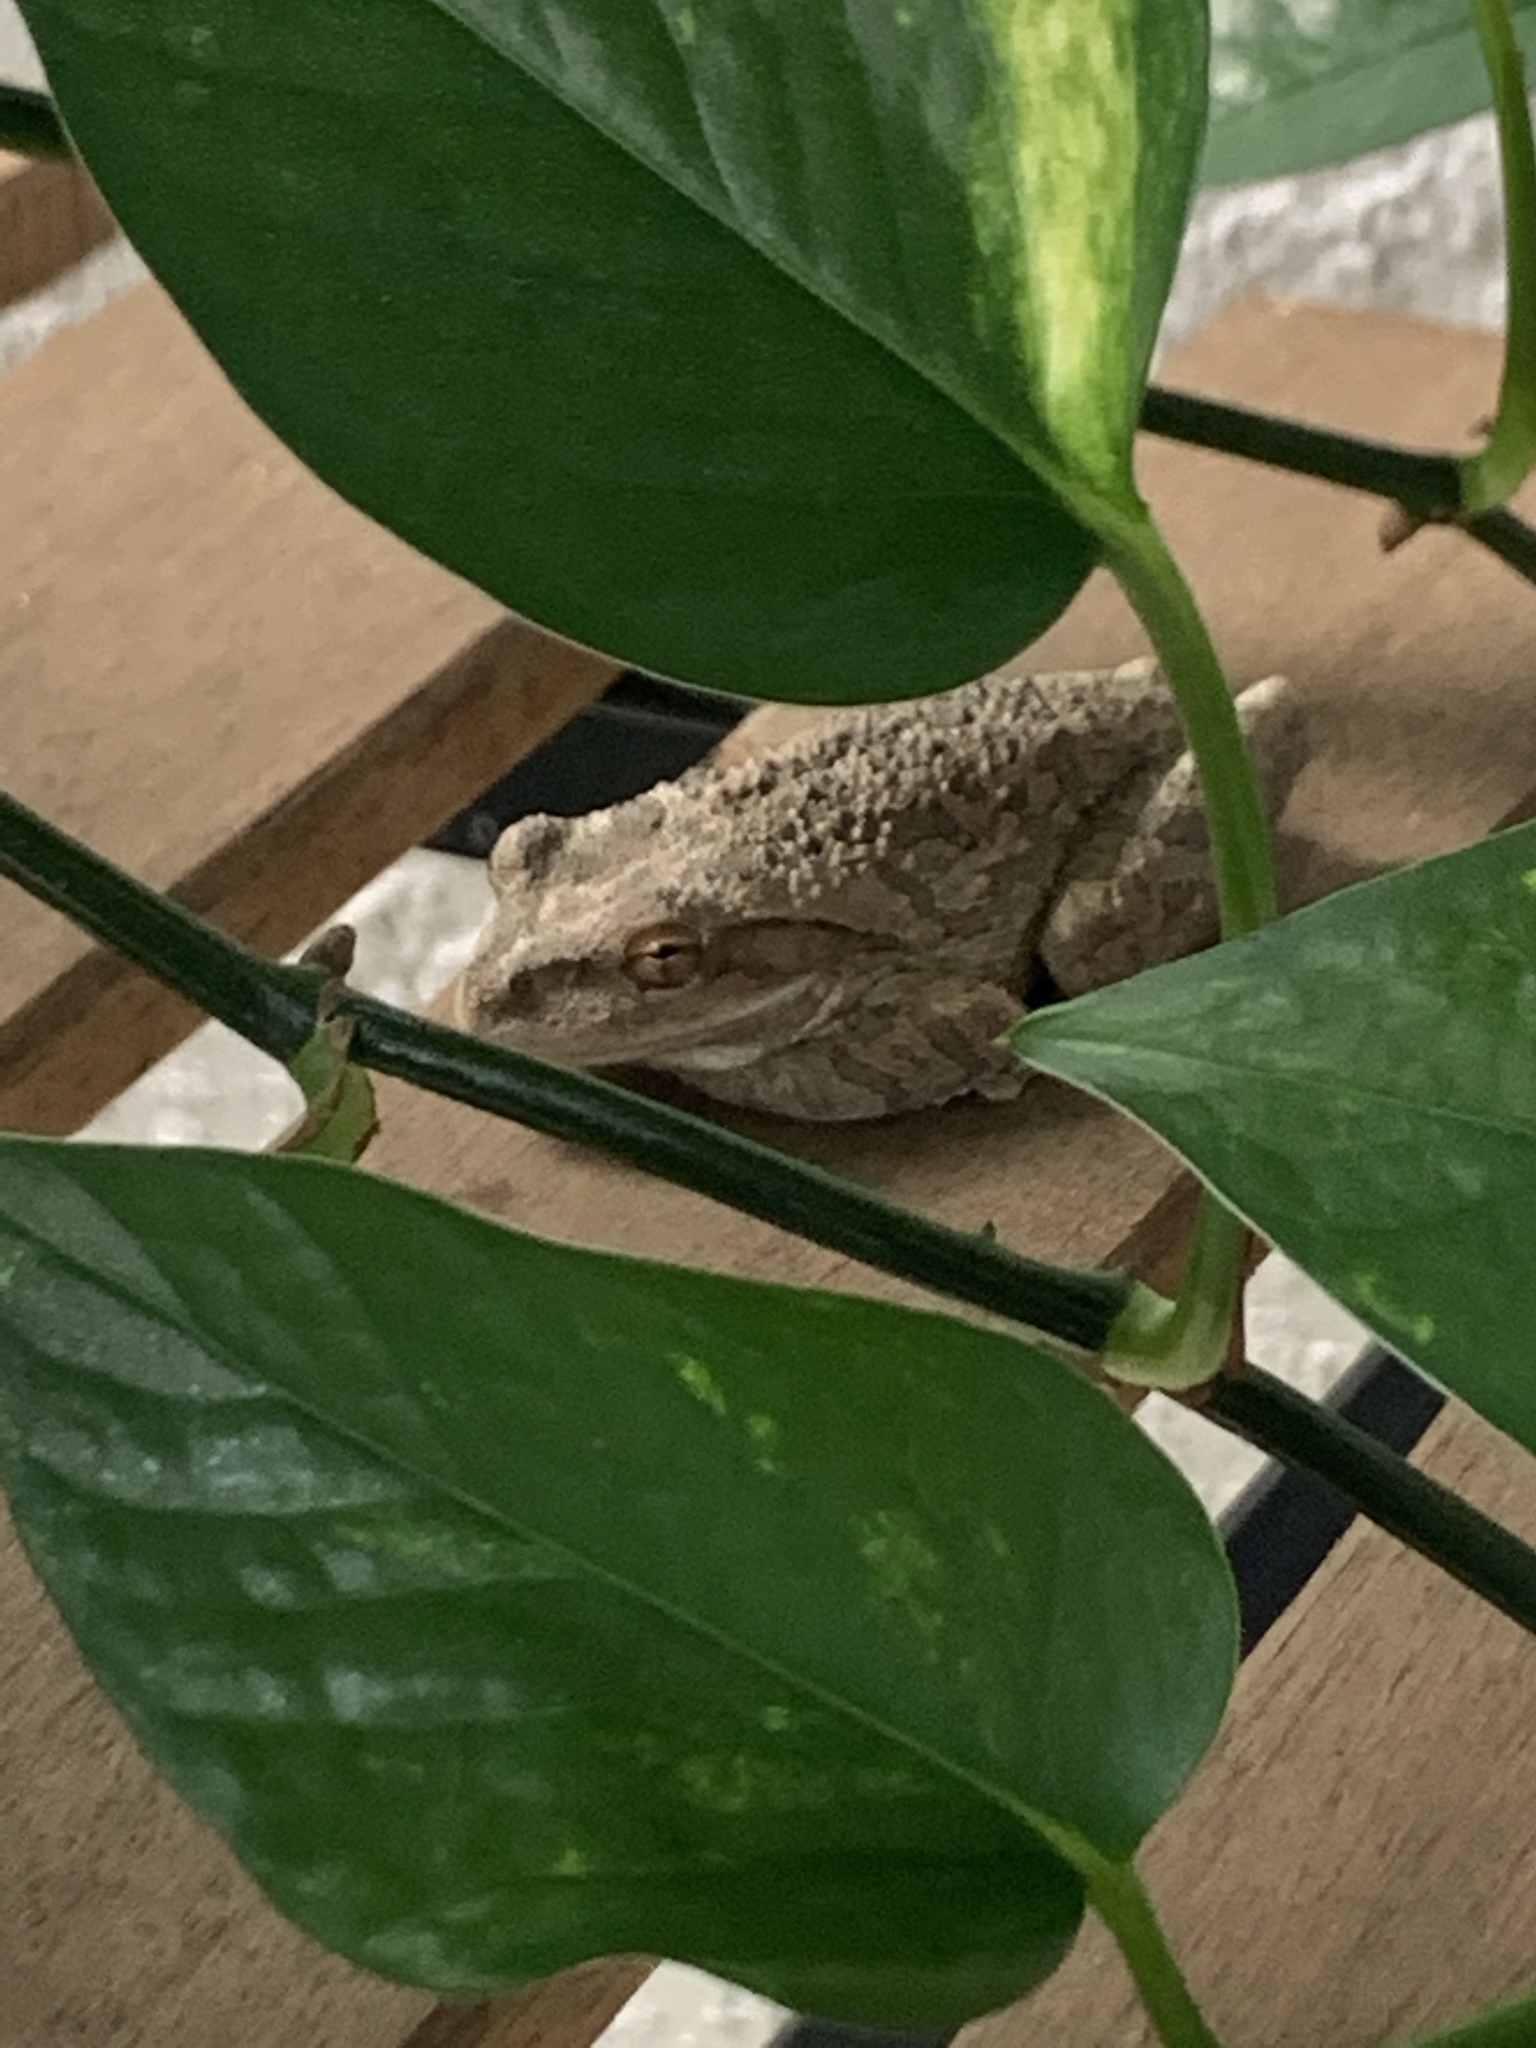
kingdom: Animalia
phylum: Chordata
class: Amphibia
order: Anura
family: Hylidae
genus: Osteopilus
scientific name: Osteopilus septentrionalis
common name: Cuban treefrog
